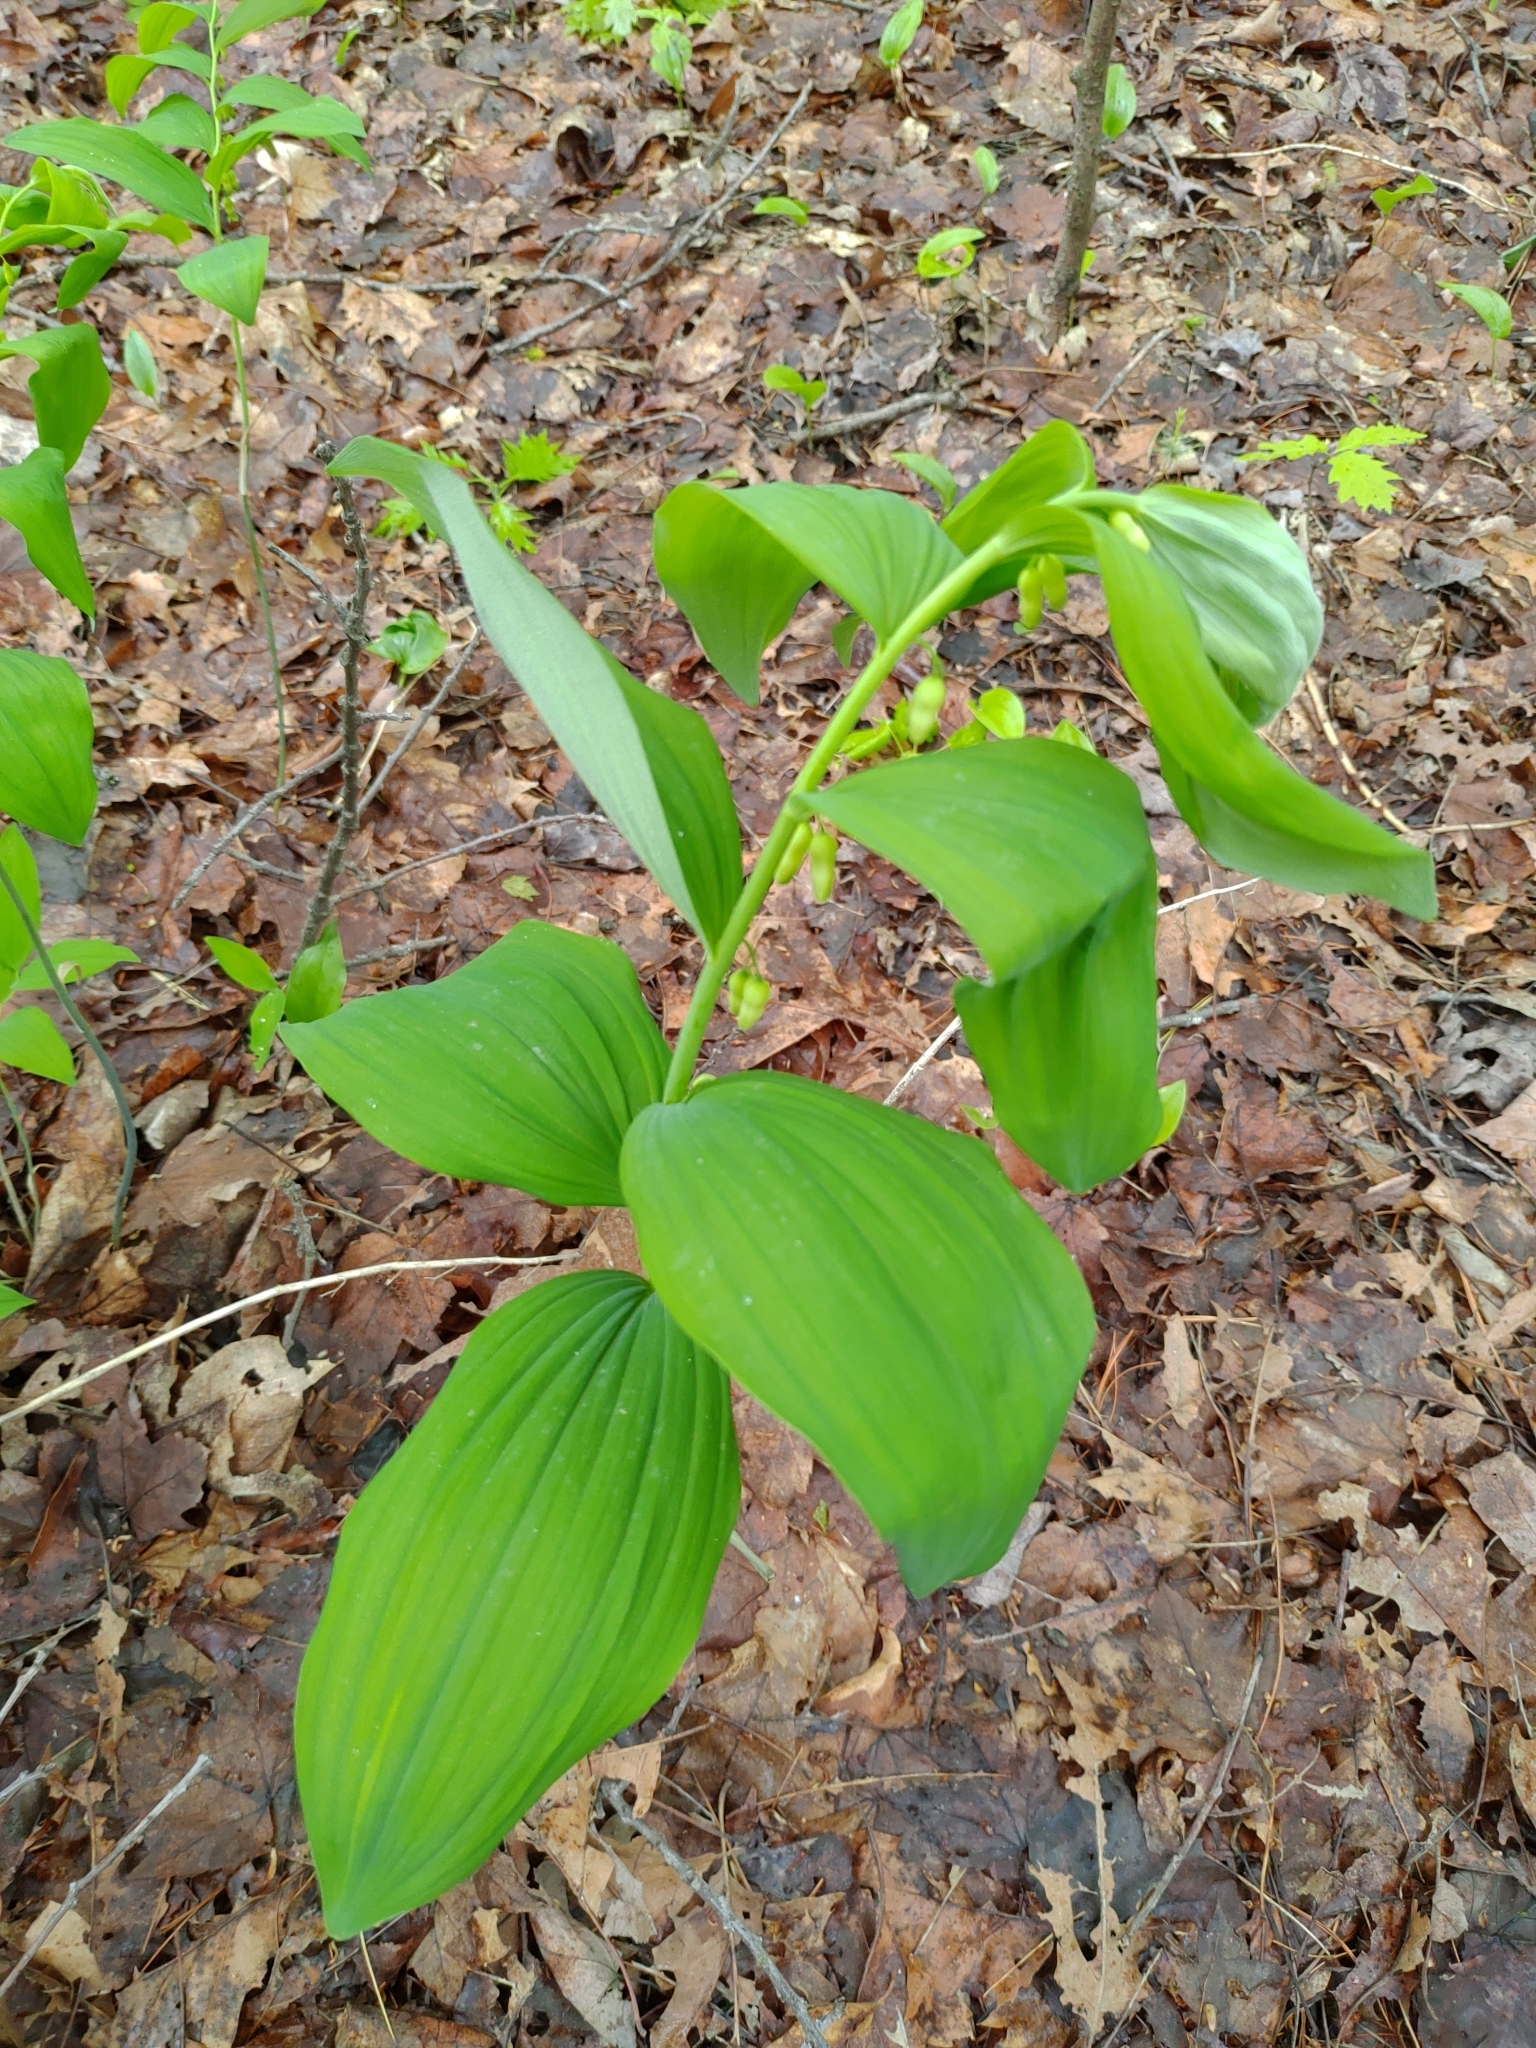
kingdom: Plantae
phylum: Tracheophyta
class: Liliopsida
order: Asparagales
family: Asparagaceae
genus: Polygonatum
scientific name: Polygonatum pubescens
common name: Downy solomon's seal
